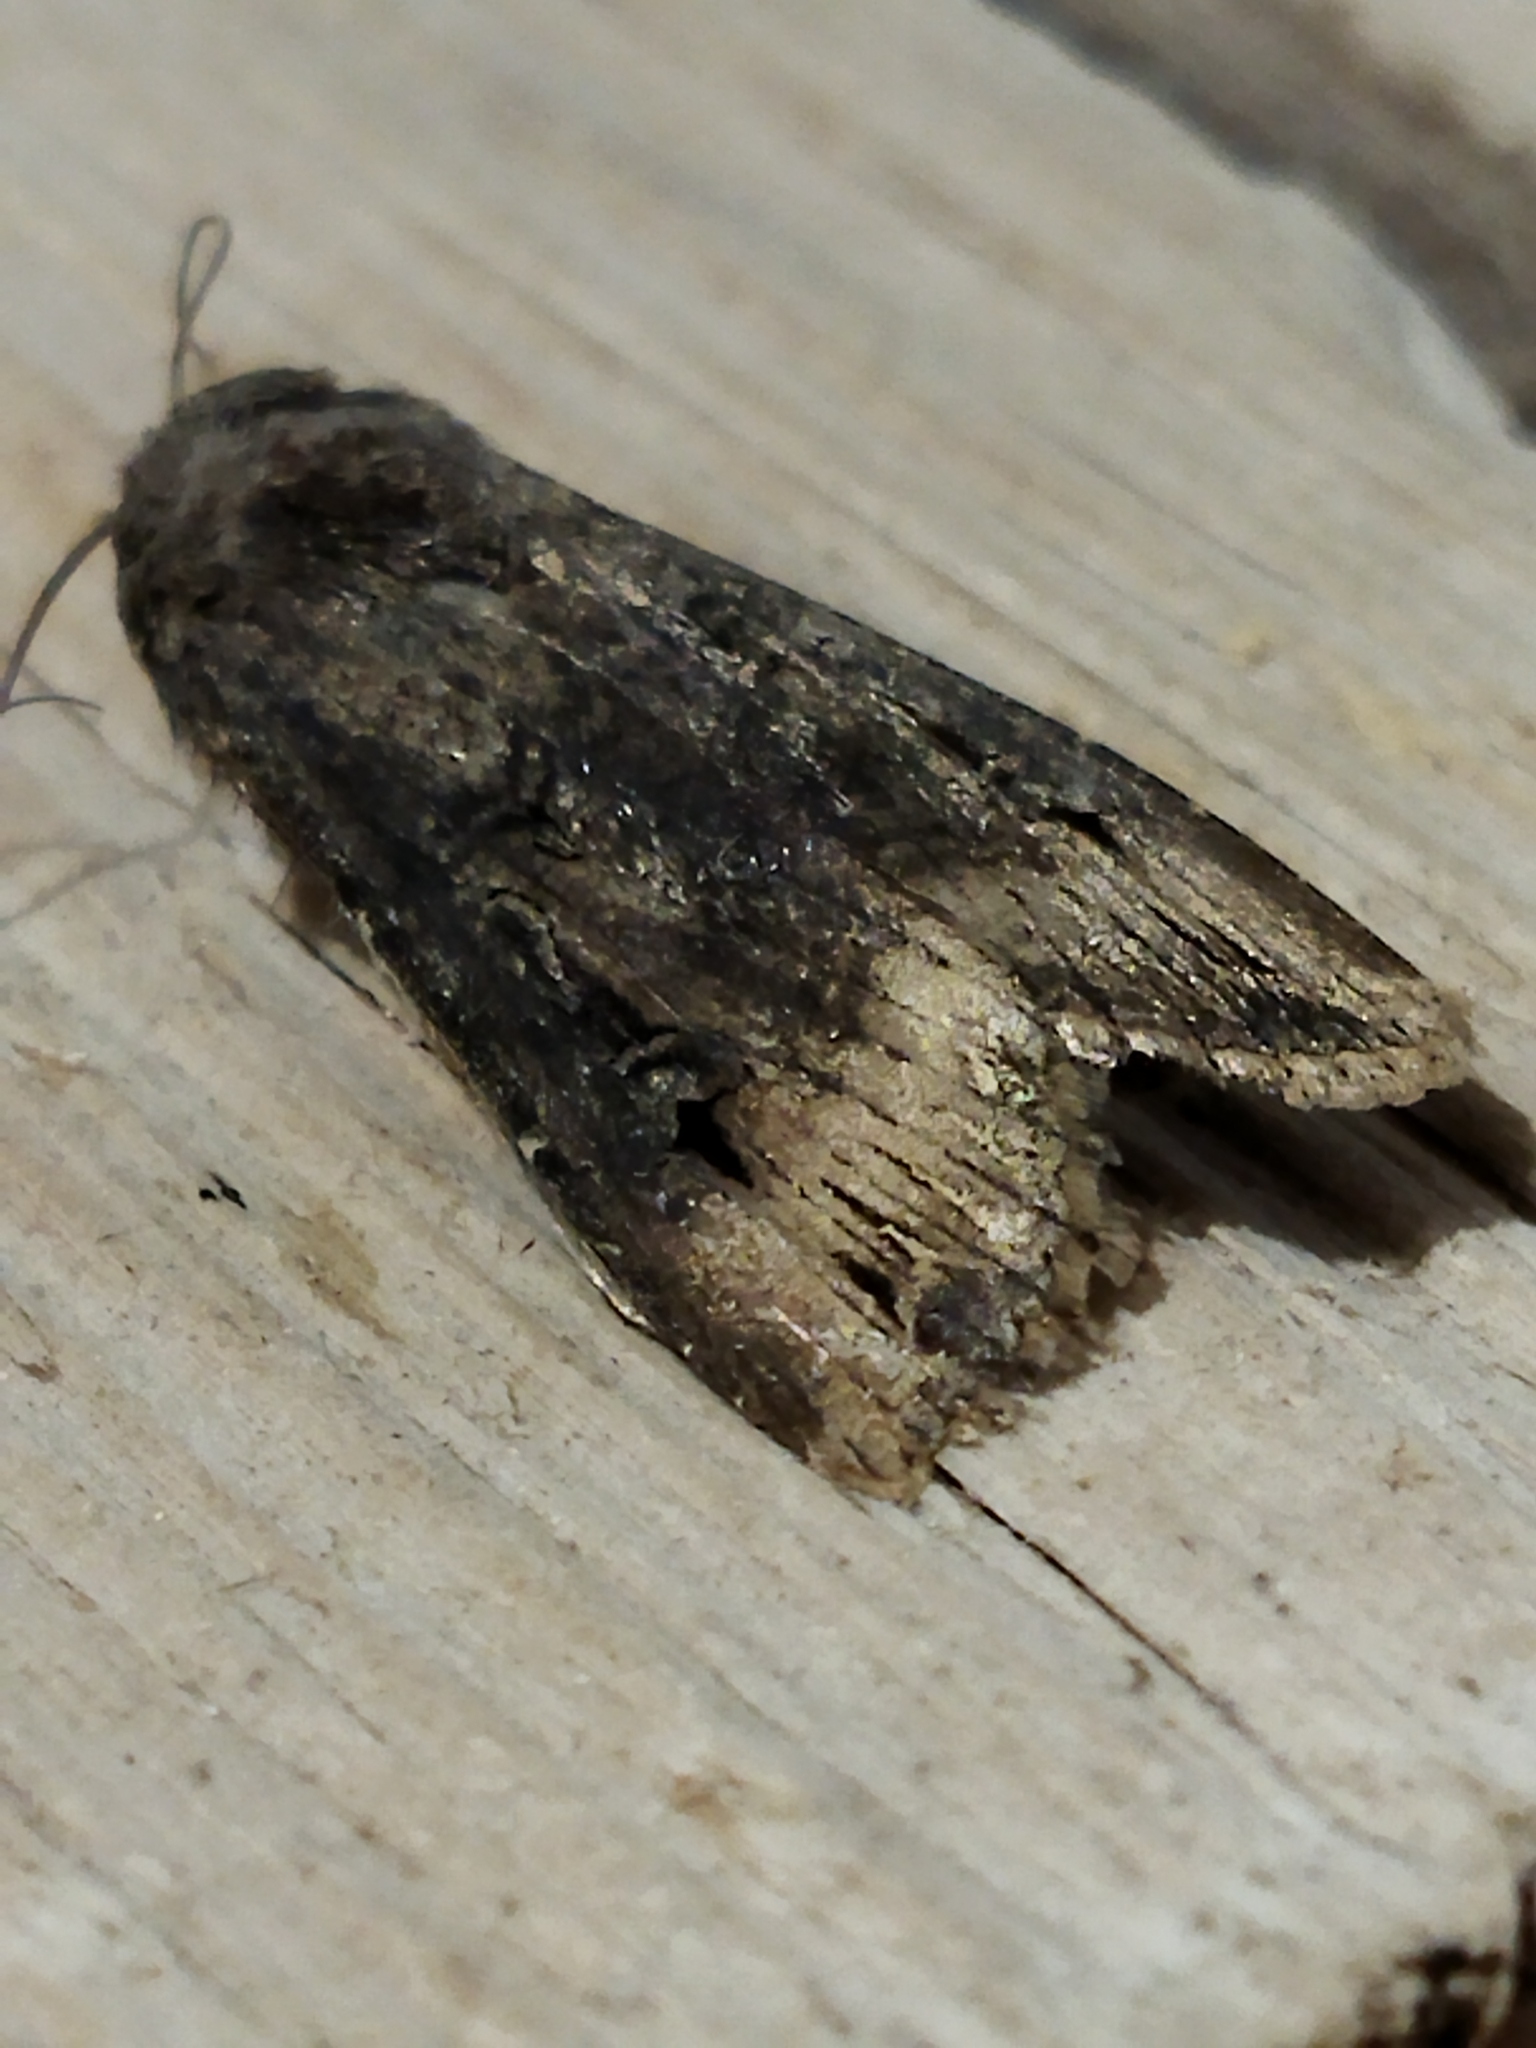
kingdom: Animalia
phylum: Arthropoda
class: Insecta
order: Lepidoptera
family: Noctuidae
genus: Agrotis
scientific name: Agrotis ipsilon
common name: Dark sword-grass
